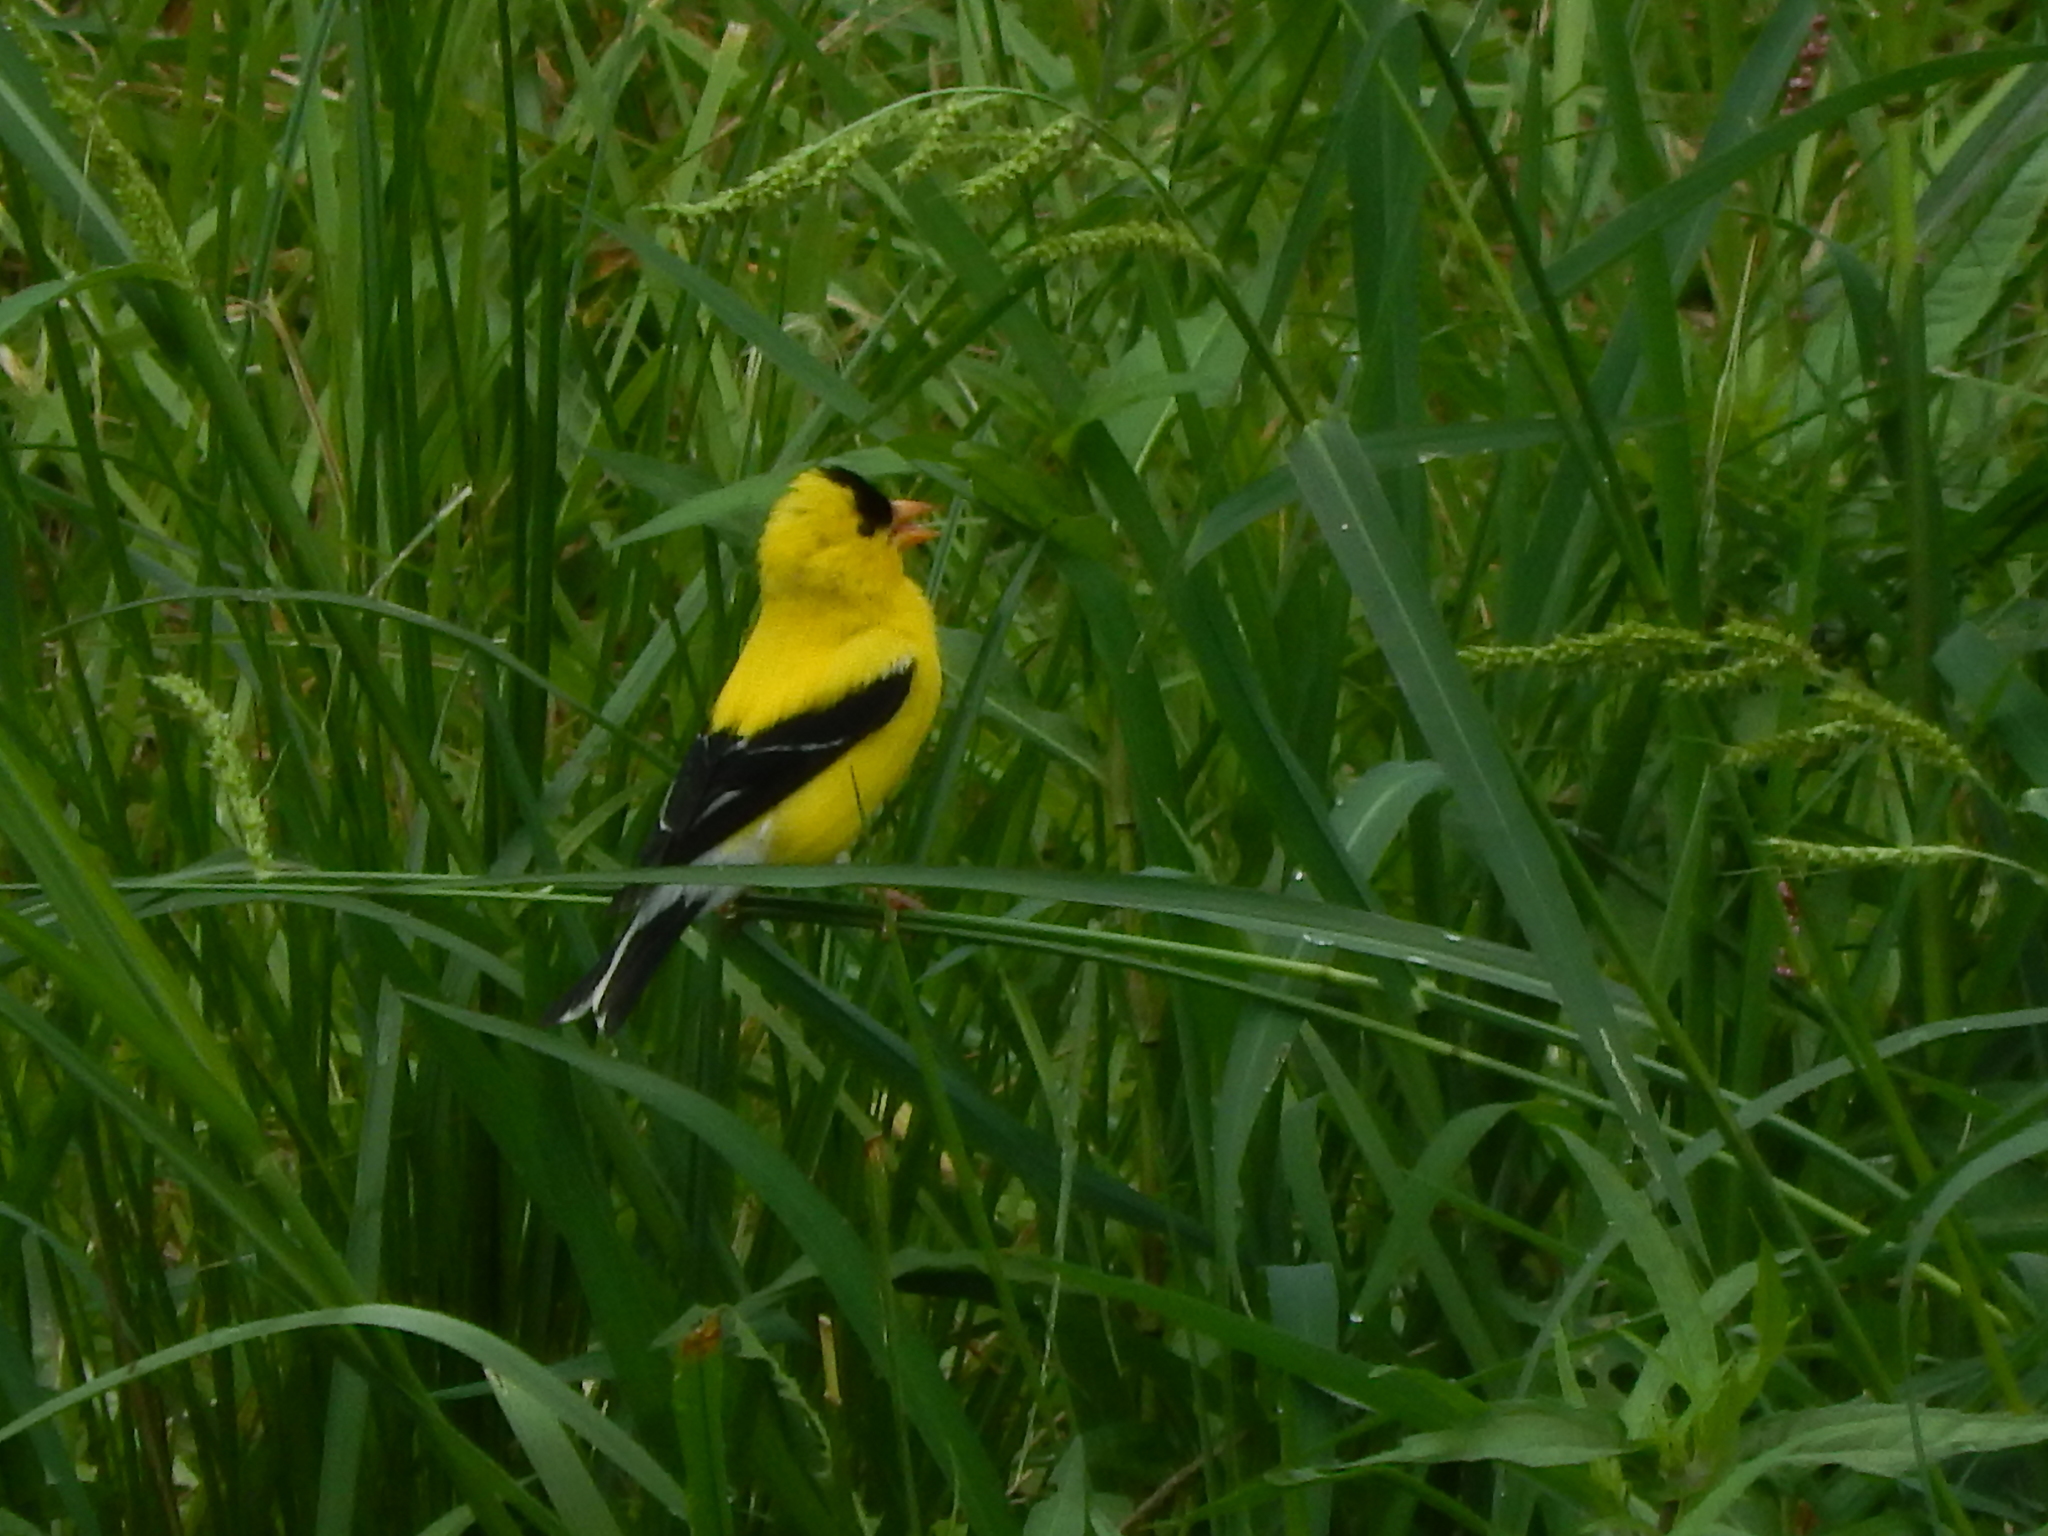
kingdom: Animalia
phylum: Chordata
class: Aves
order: Passeriformes
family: Fringillidae
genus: Spinus
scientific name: Spinus tristis
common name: American goldfinch
